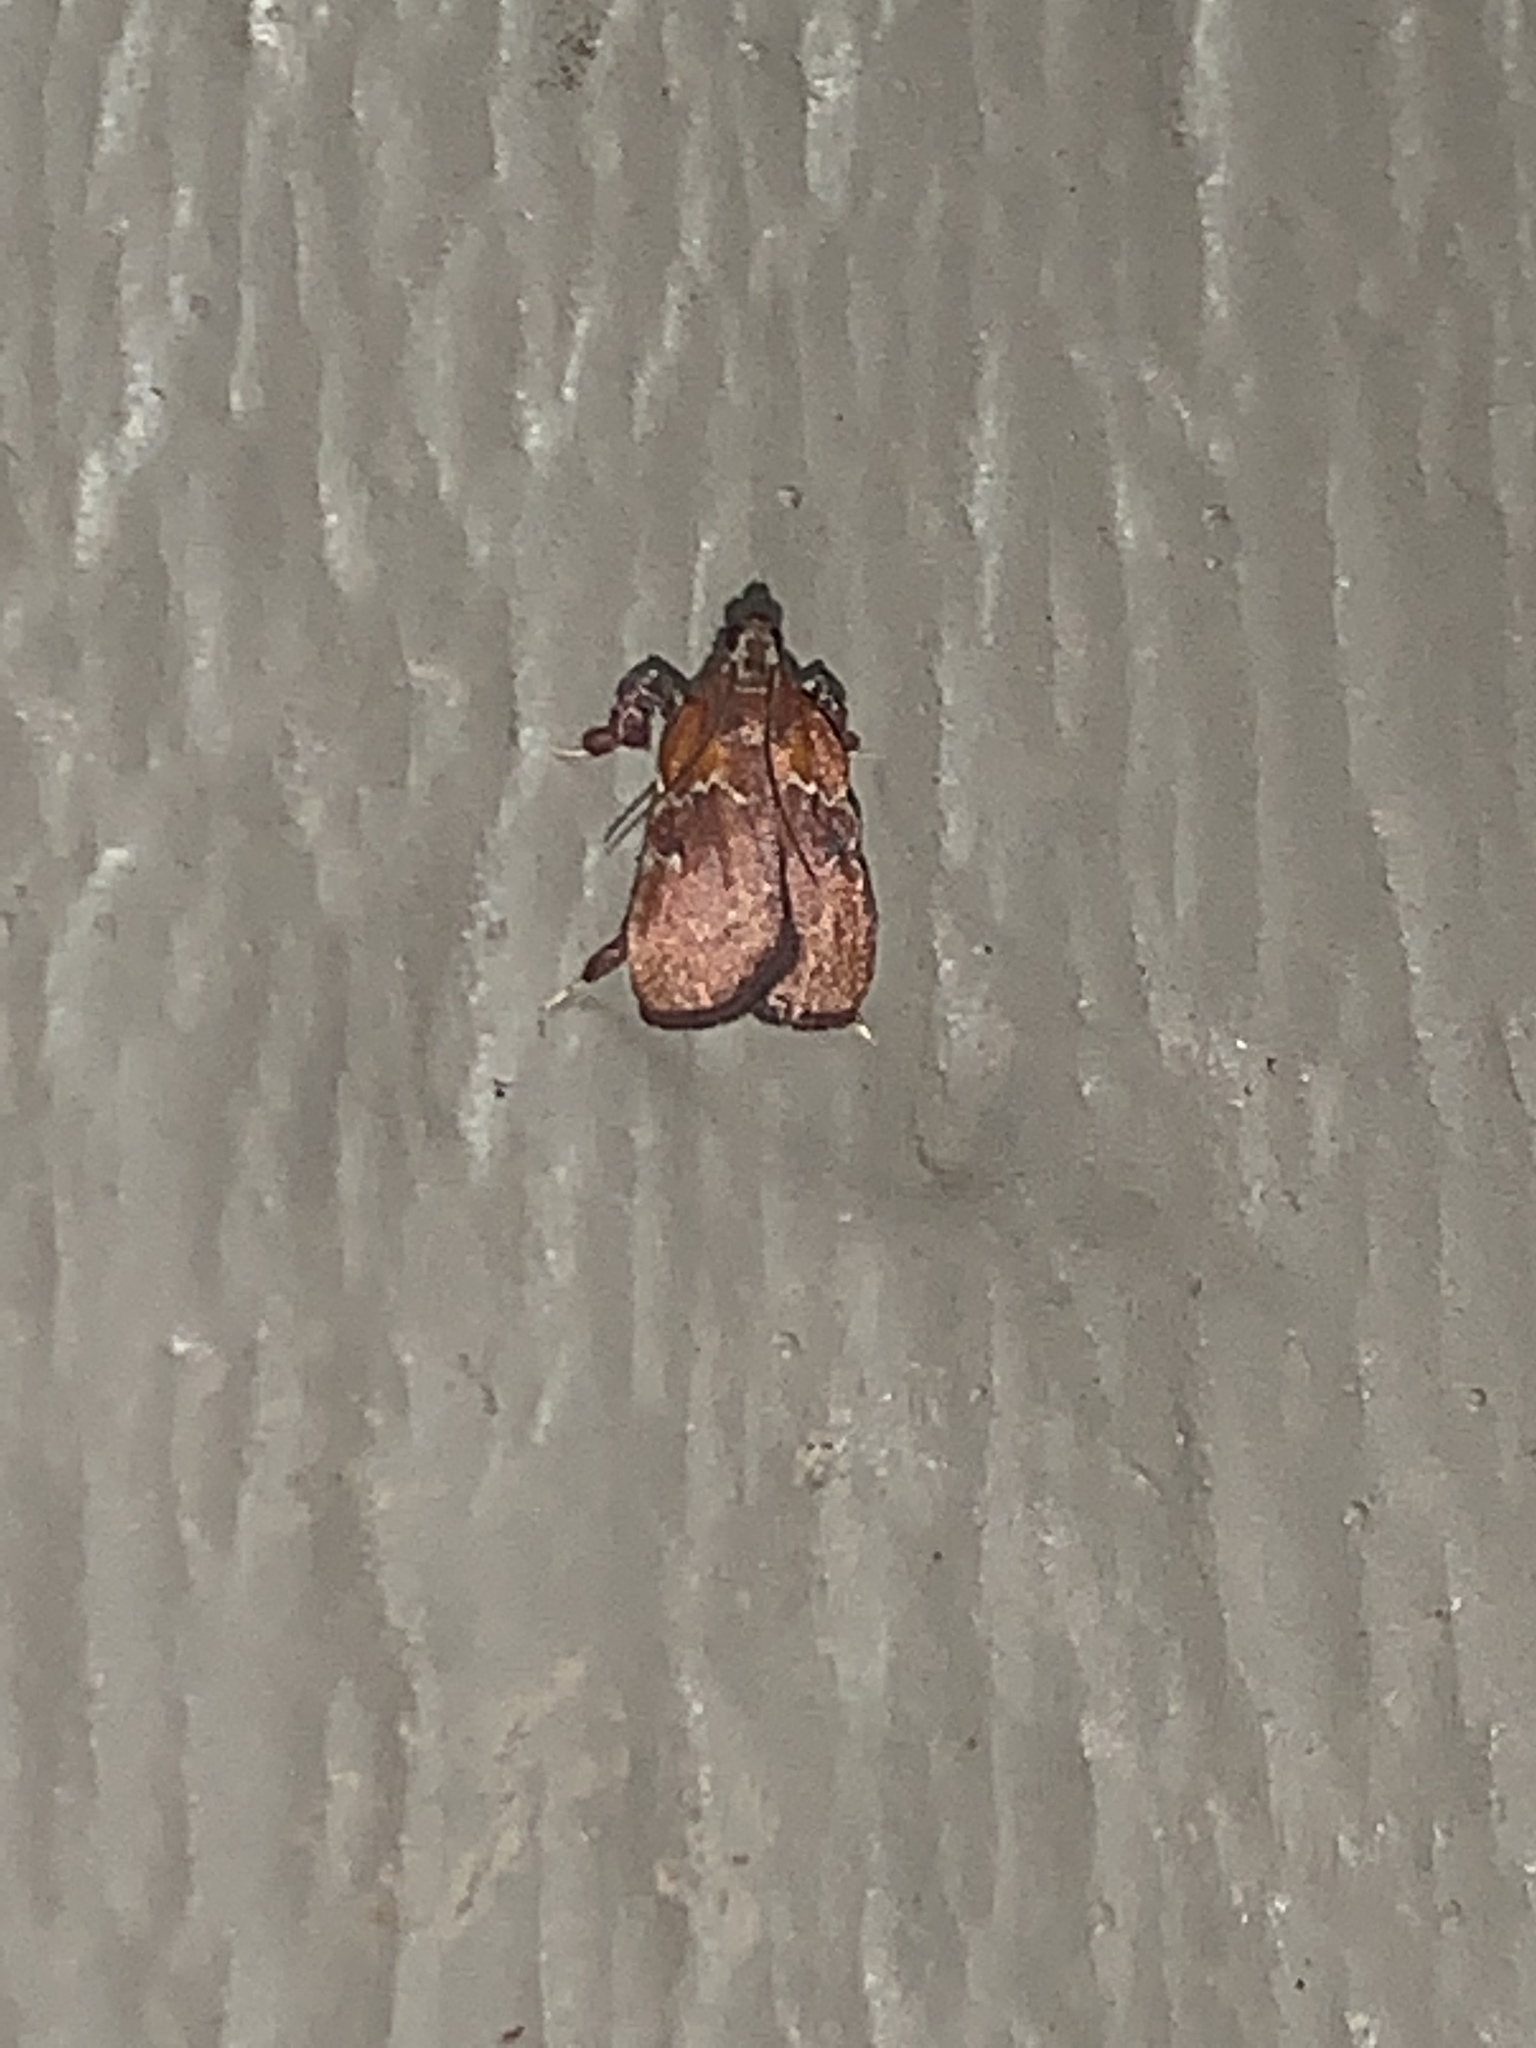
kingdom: Animalia
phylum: Arthropoda
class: Insecta
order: Lepidoptera
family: Pyralidae
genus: Galasa
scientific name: Galasa nigrinodis
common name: Boxwood leaftier moth
